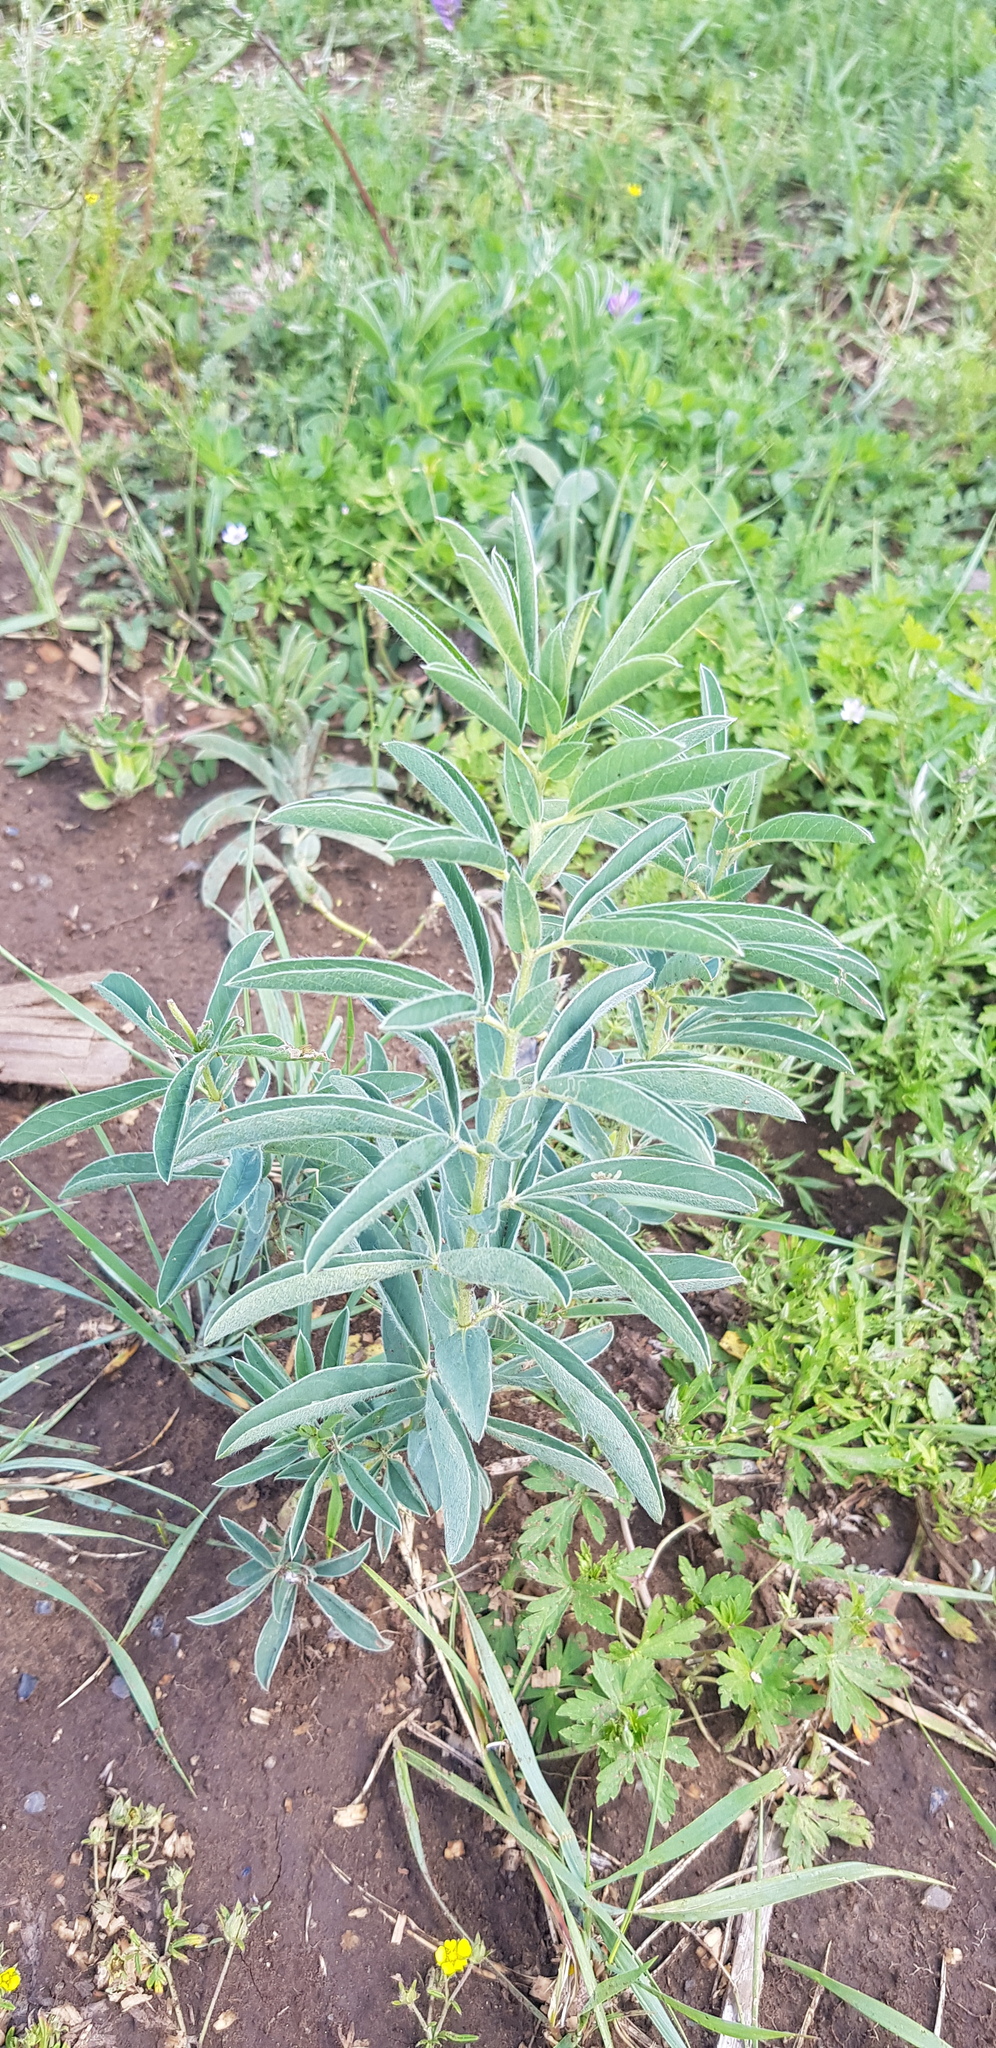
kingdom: Plantae
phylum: Tracheophyta
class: Magnoliopsida
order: Fabales
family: Fabaceae
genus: Thermopsis
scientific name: Thermopsis lanceolata
